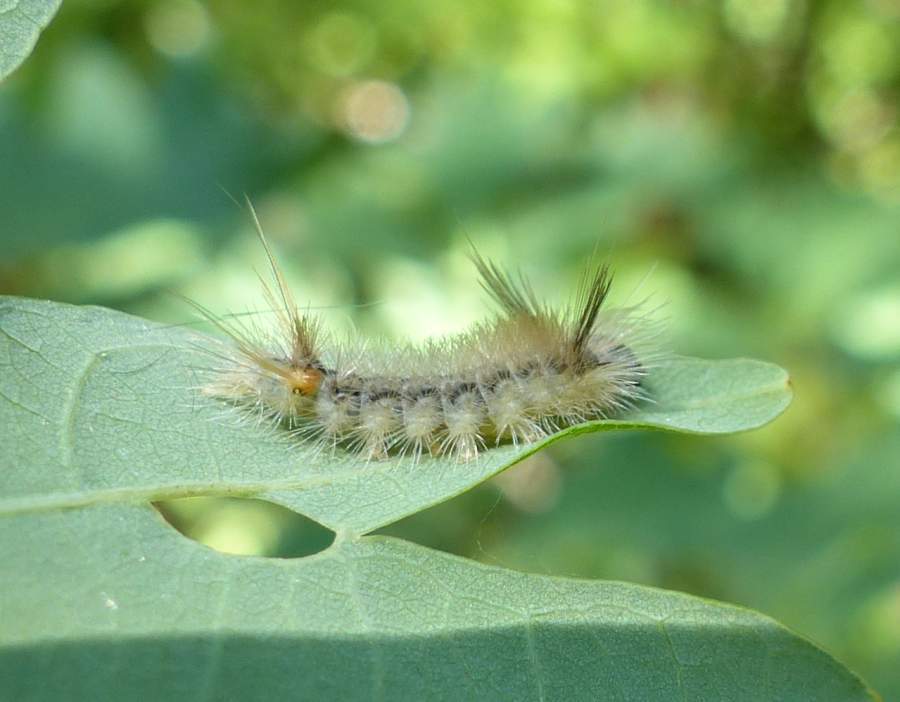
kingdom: Animalia
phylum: Arthropoda
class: Insecta
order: Lepidoptera
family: Erebidae
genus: Halysidota
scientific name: Halysidota tessellaris
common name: Banded tussock moth
